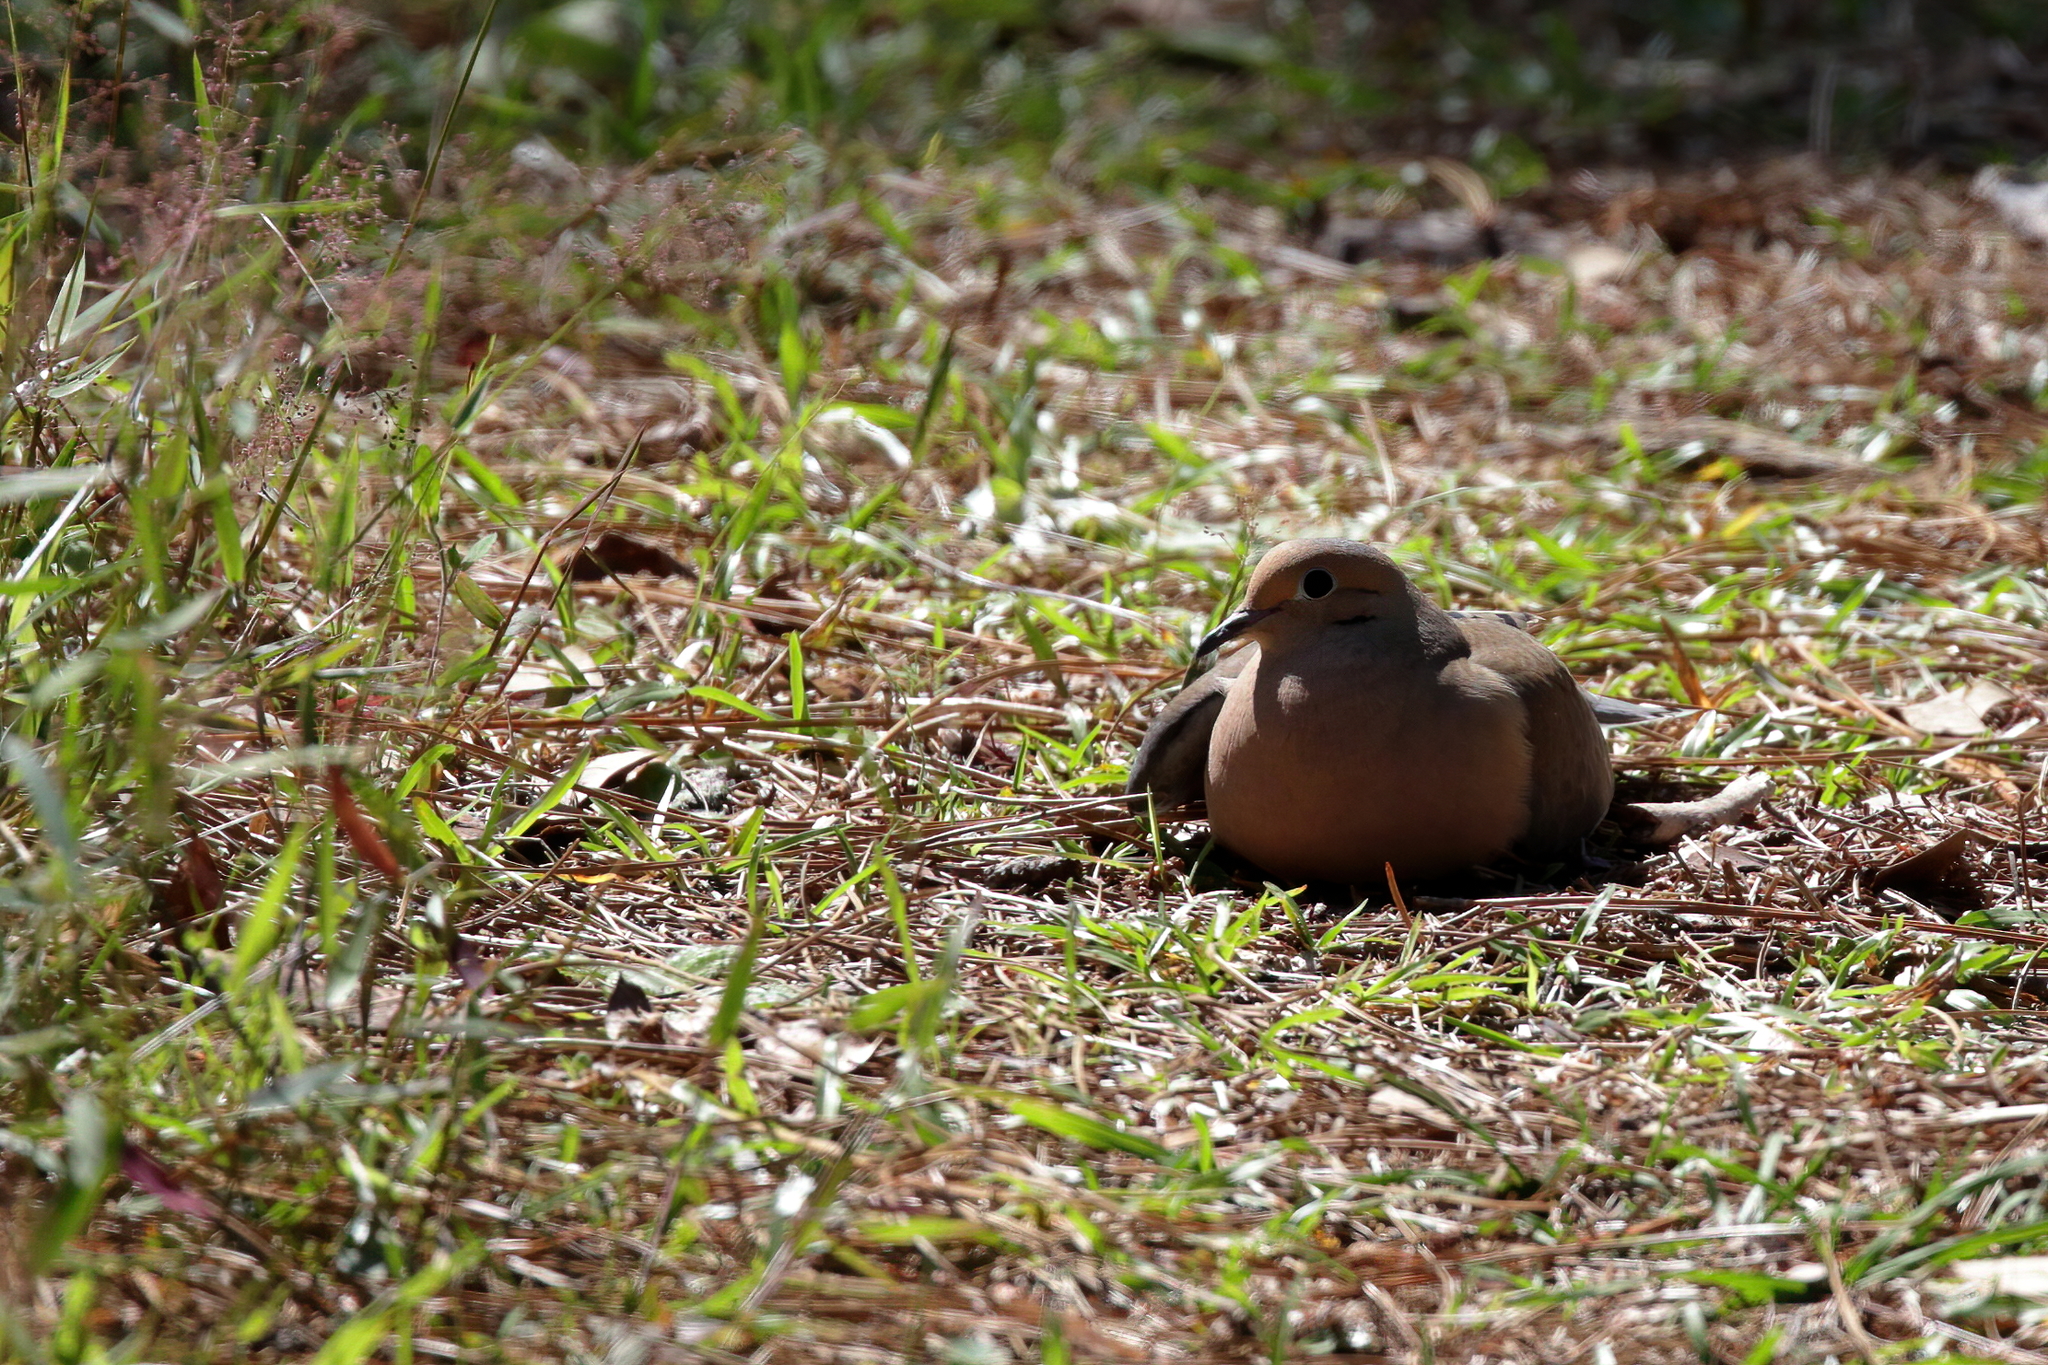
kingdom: Animalia
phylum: Chordata
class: Aves
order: Columbiformes
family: Columbidae
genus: Zenaida
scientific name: Zenaida macroura
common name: Mourning dove
